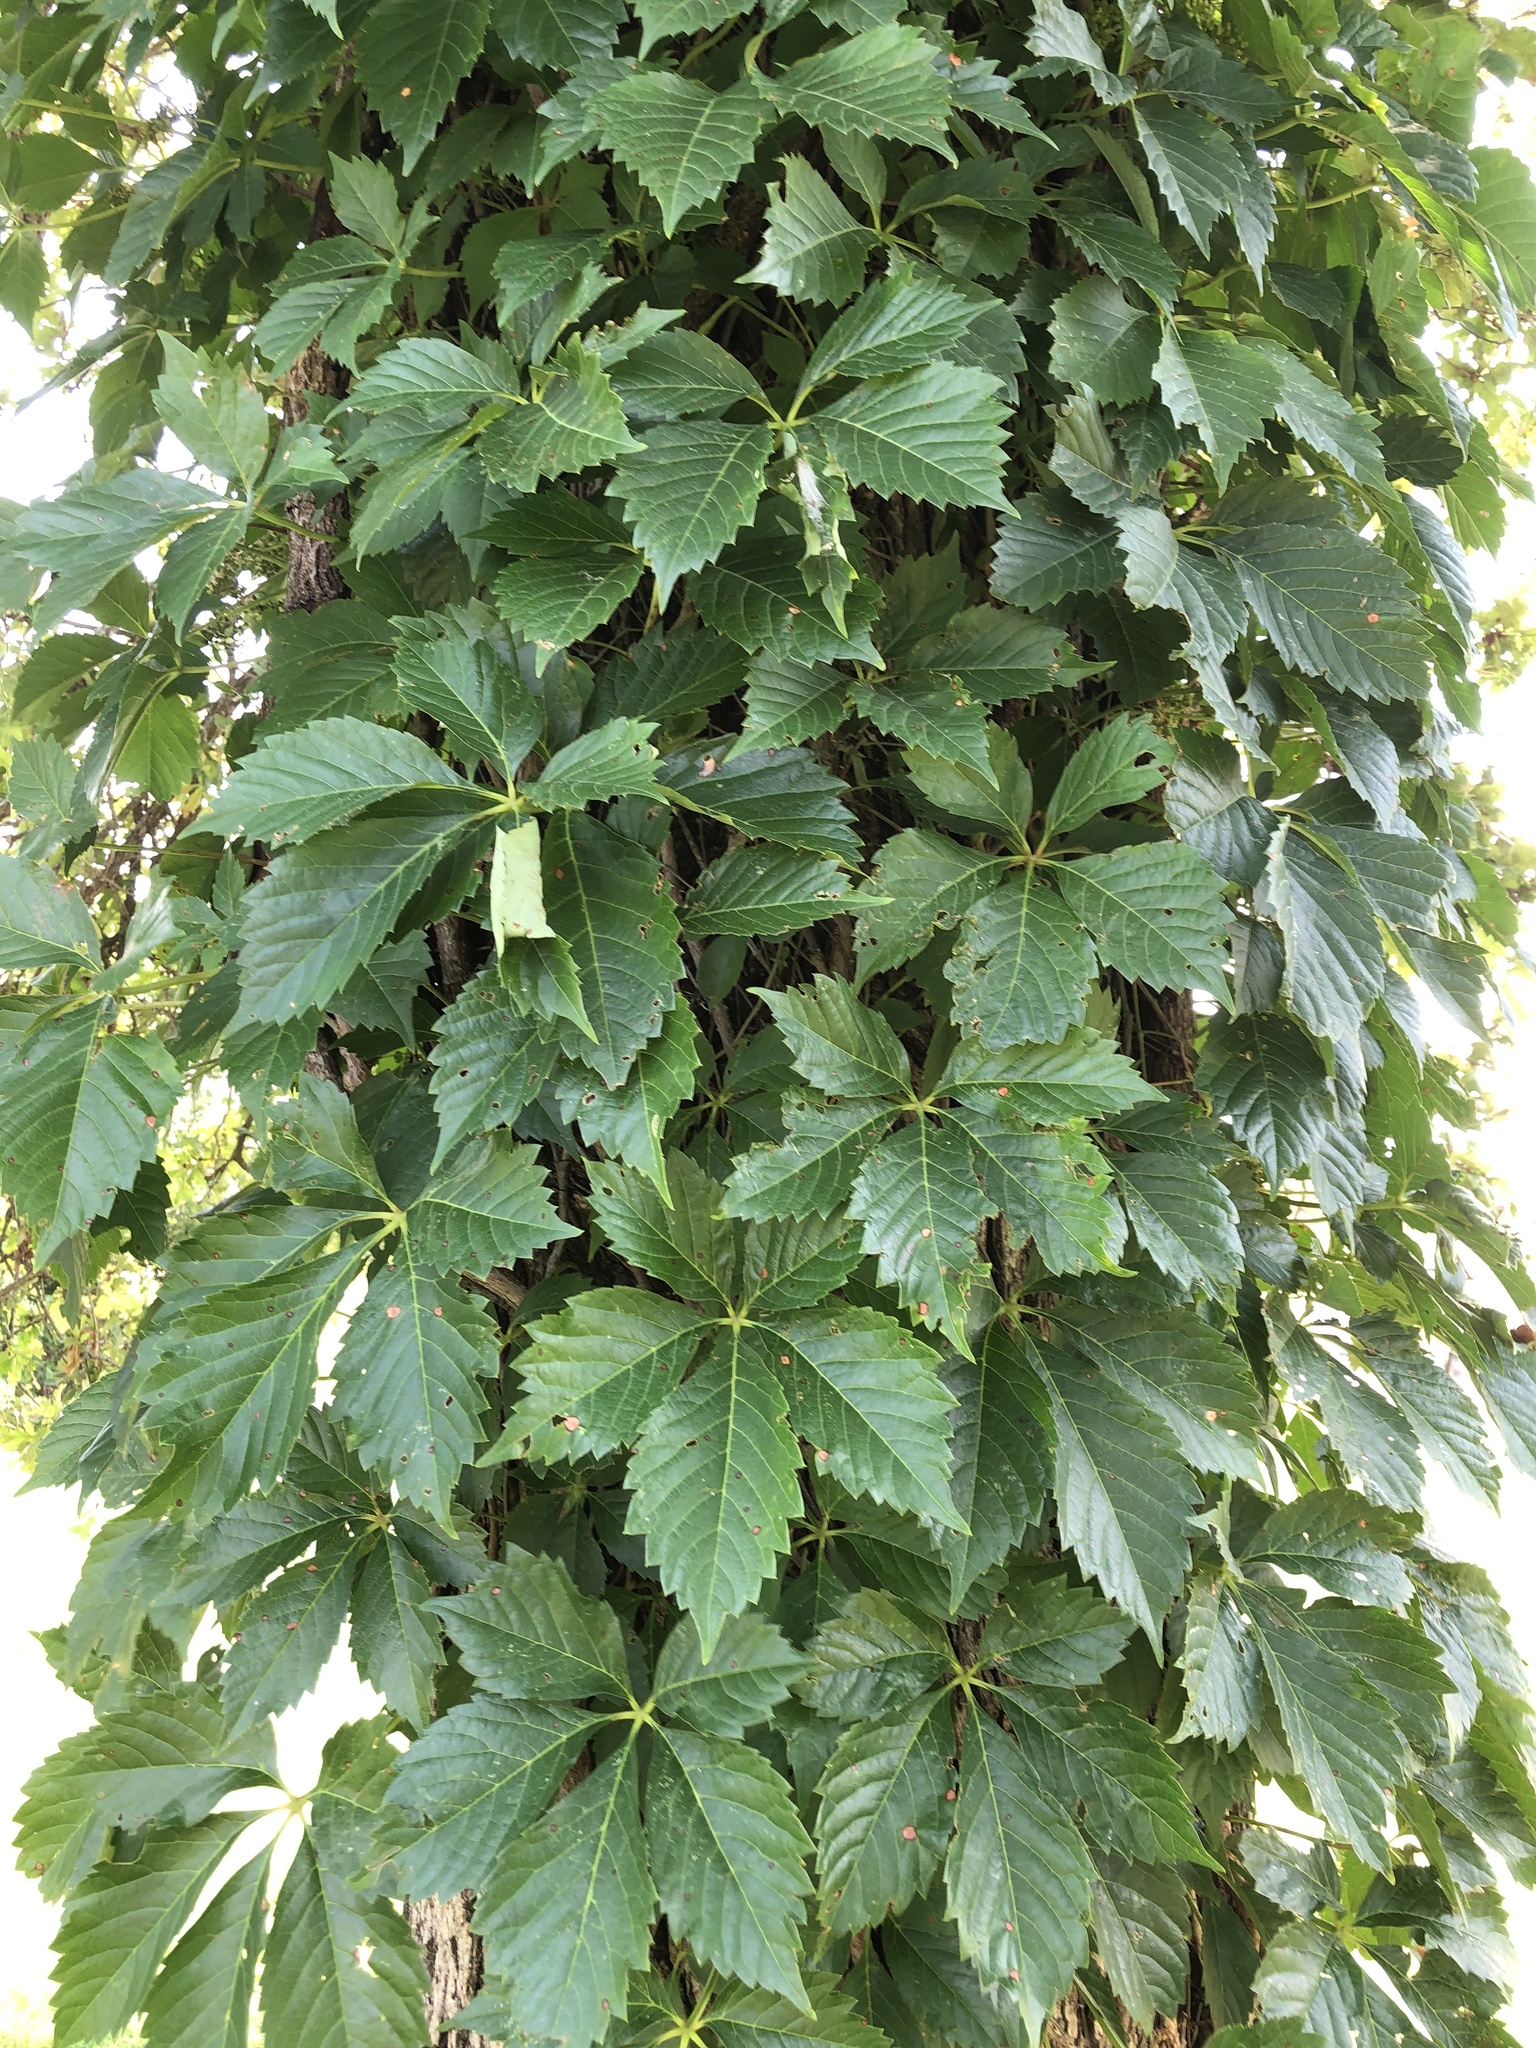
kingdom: Plantae
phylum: Tracheophyta
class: Magnoliopsida
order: Vitales
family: Vitaceae
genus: Parthenocissus
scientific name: Parthenocissus quinquefolia
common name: Virginia-creeper
